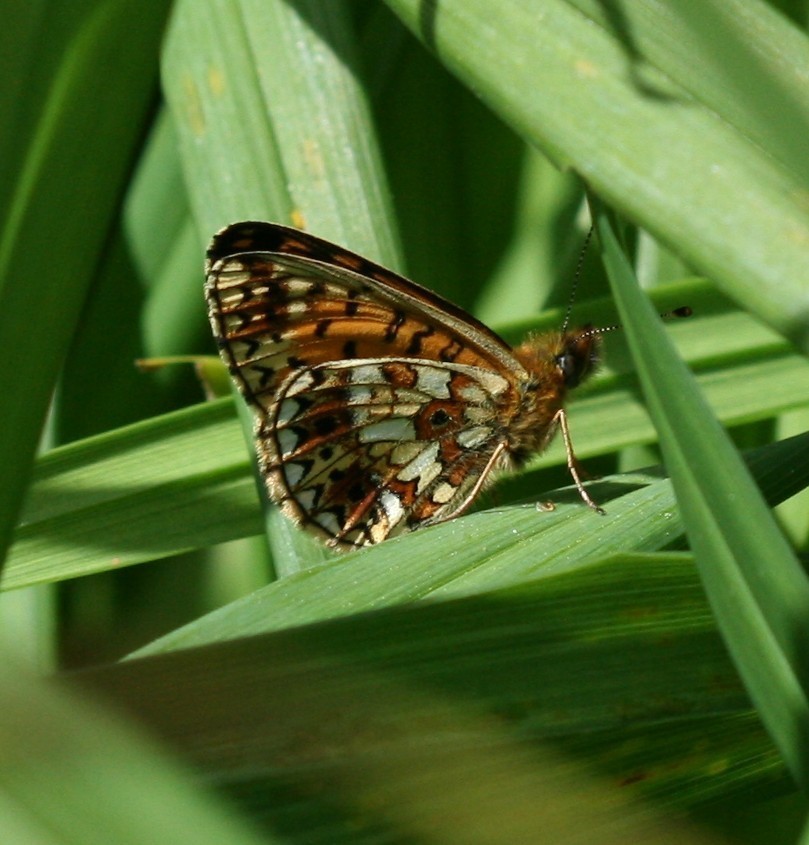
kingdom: Animalia
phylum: Arthropoda
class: Insecta
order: Lepidoptera
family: Nymphalidae
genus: Boloria
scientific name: Boloria selene
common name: Small pearl-bordered fritillary
